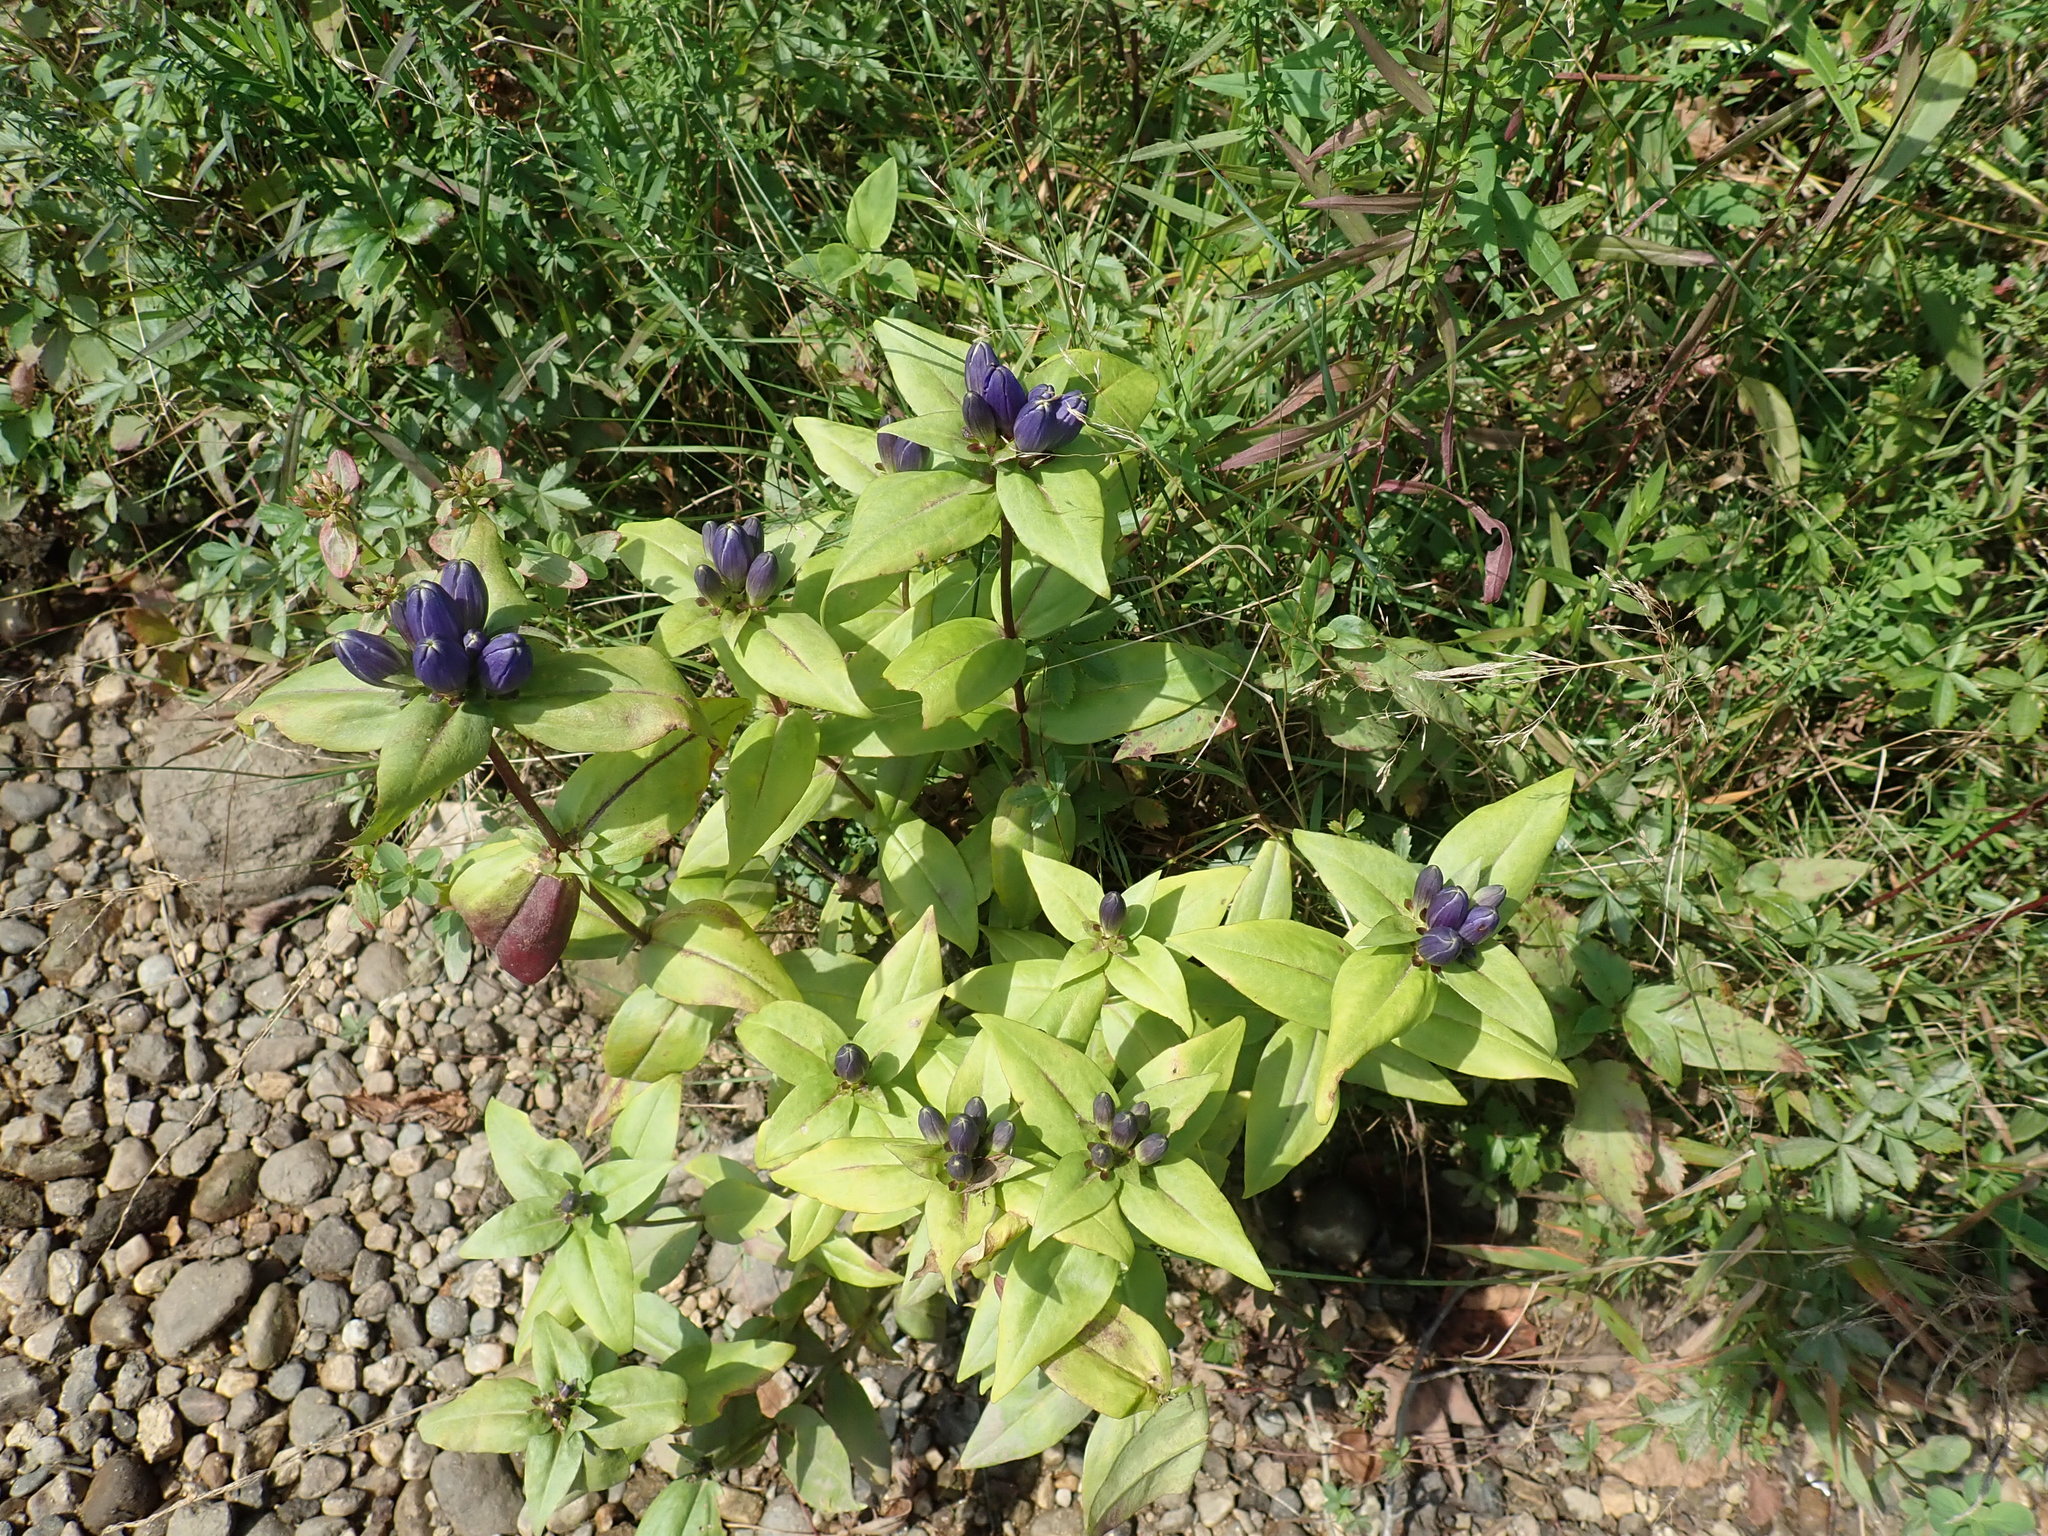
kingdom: Plantae
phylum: Tracheophyta
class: Magnoliopsida
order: Gentianales
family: Gentianaceae
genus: Gentiana
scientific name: Gentiana clausa
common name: Blind gentian
